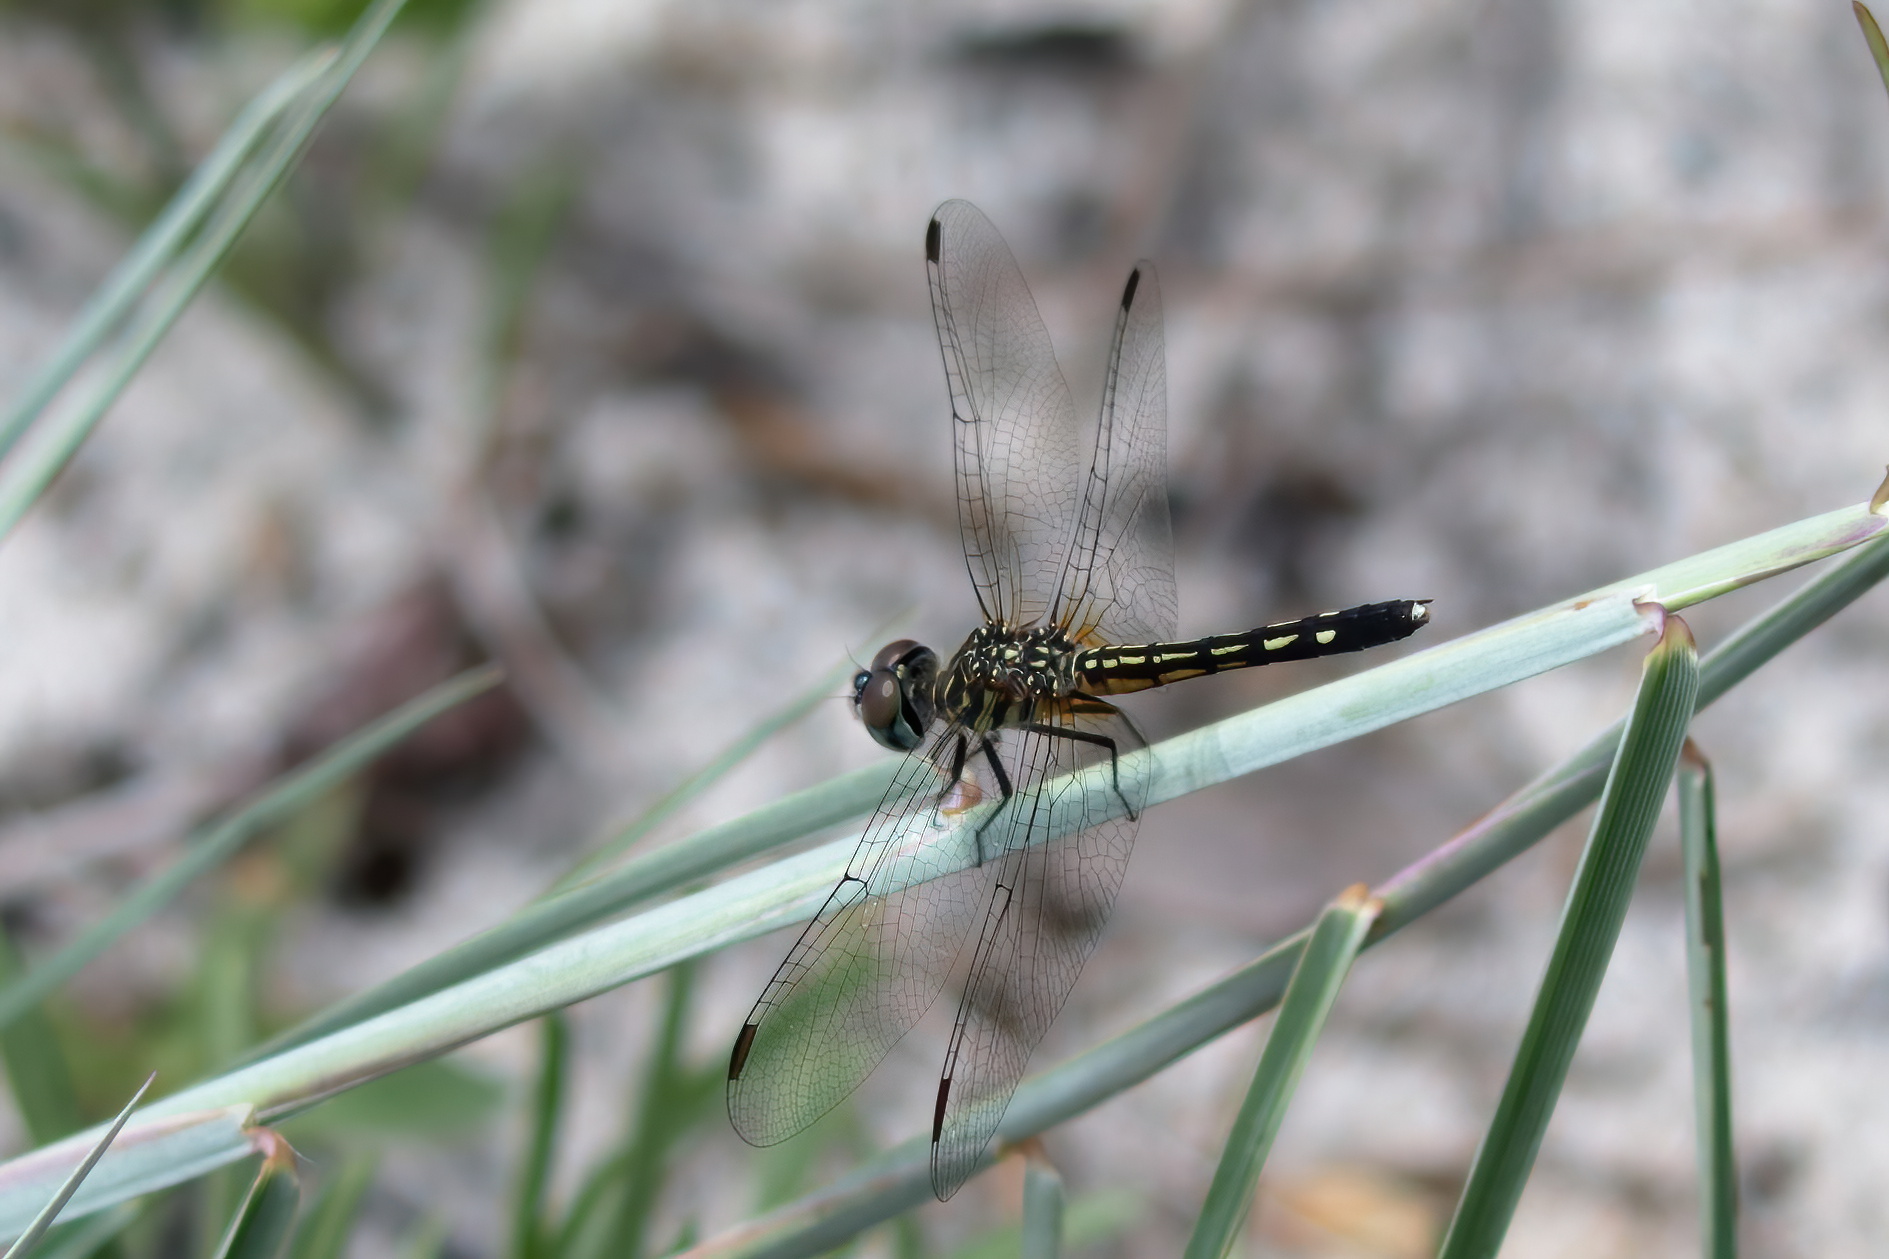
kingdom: Animalia
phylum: Arthropoda
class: Insecta
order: Odonata
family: Libellulidae
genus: Pachydiplax
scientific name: Pachydiplax longipennis
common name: Blue dasher
